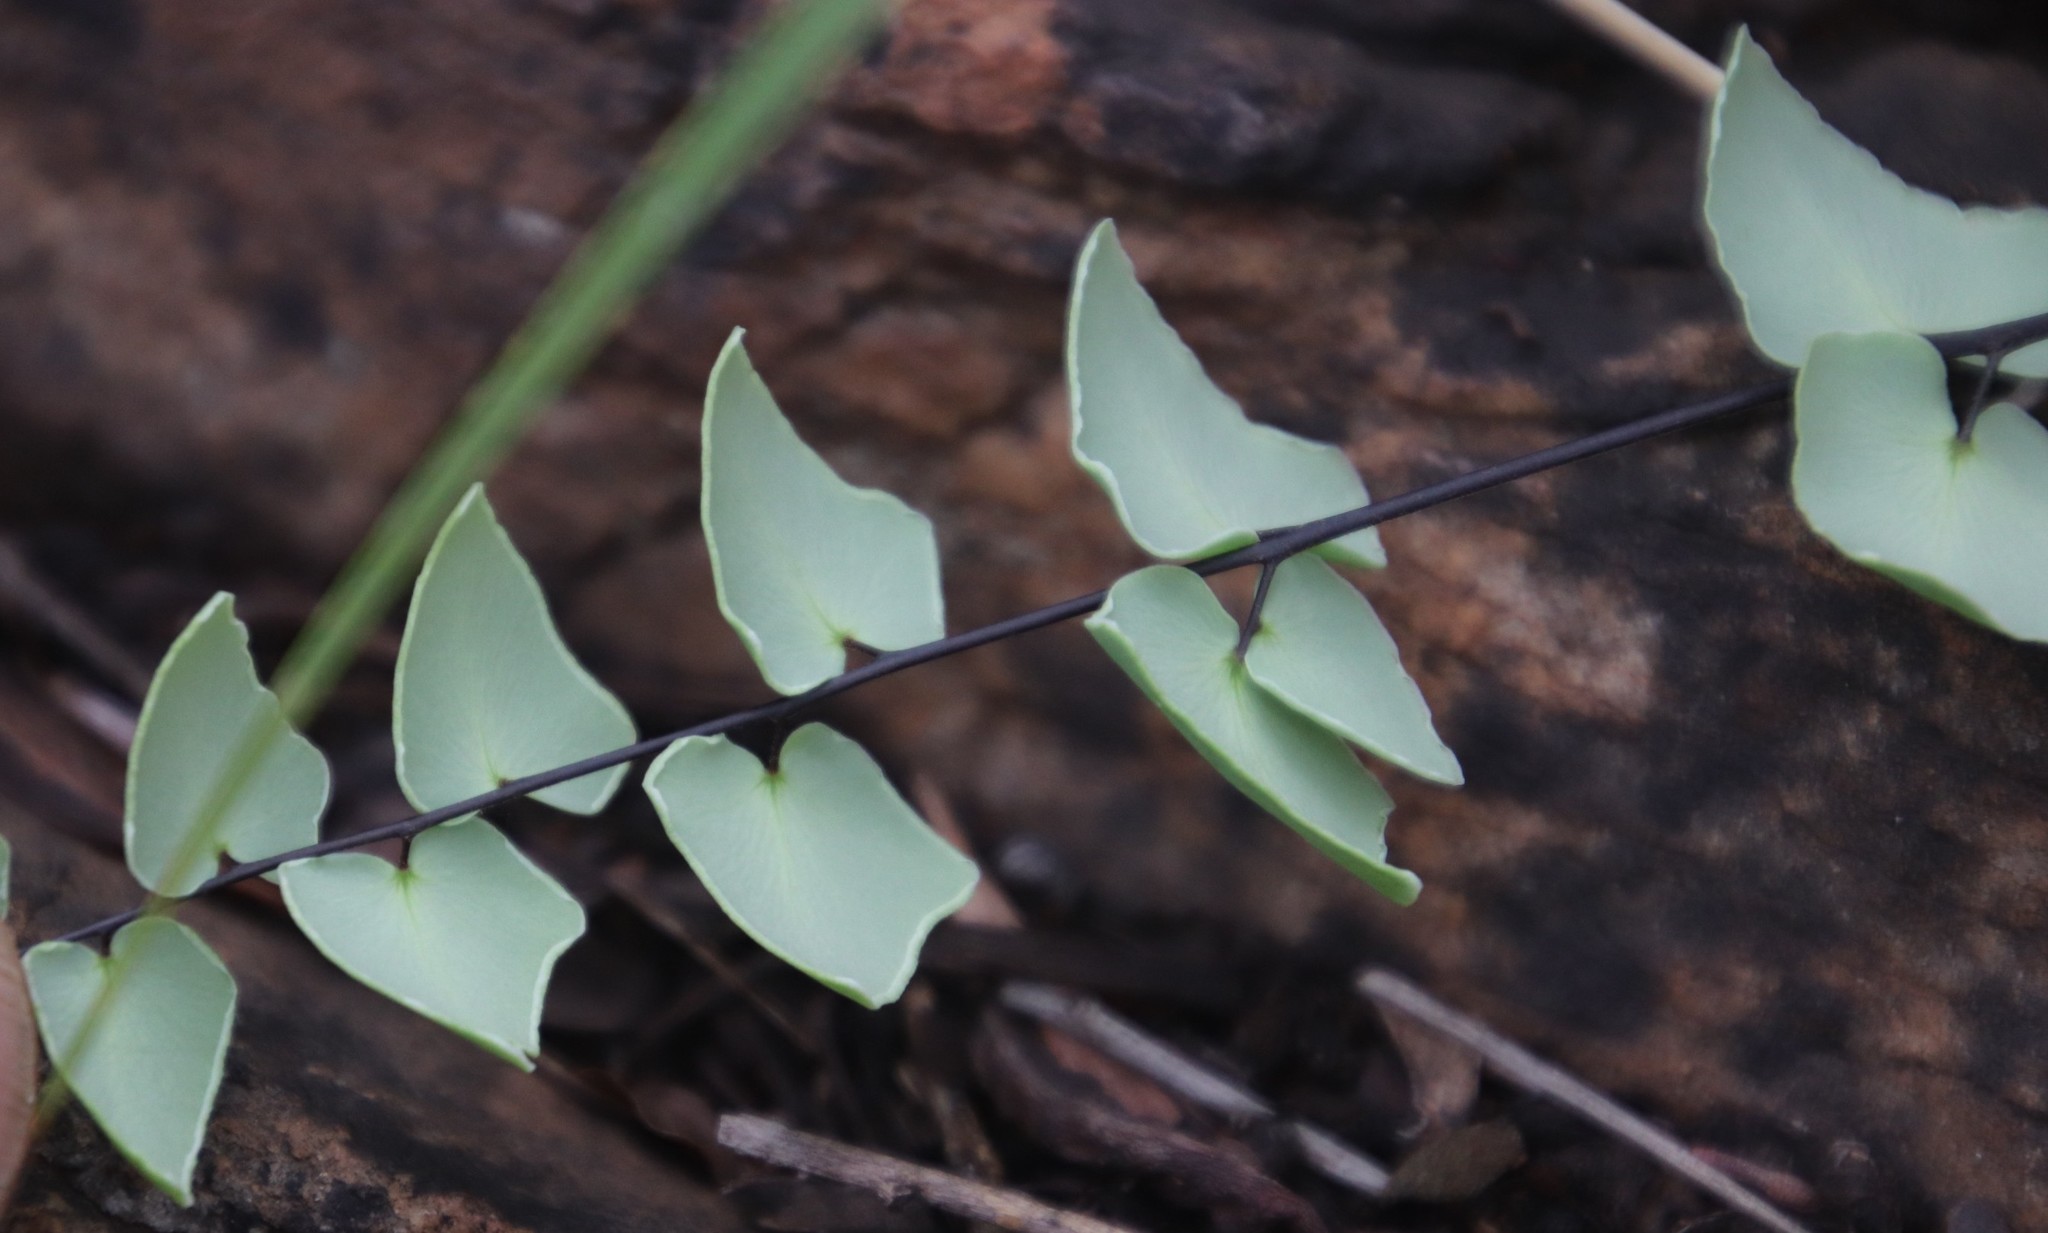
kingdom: Plantae
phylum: Tracheophyta
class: Polypodiopsida
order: Polypodiales
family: Pteridaceae
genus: Pellaea
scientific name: Pellaea calomelanos
